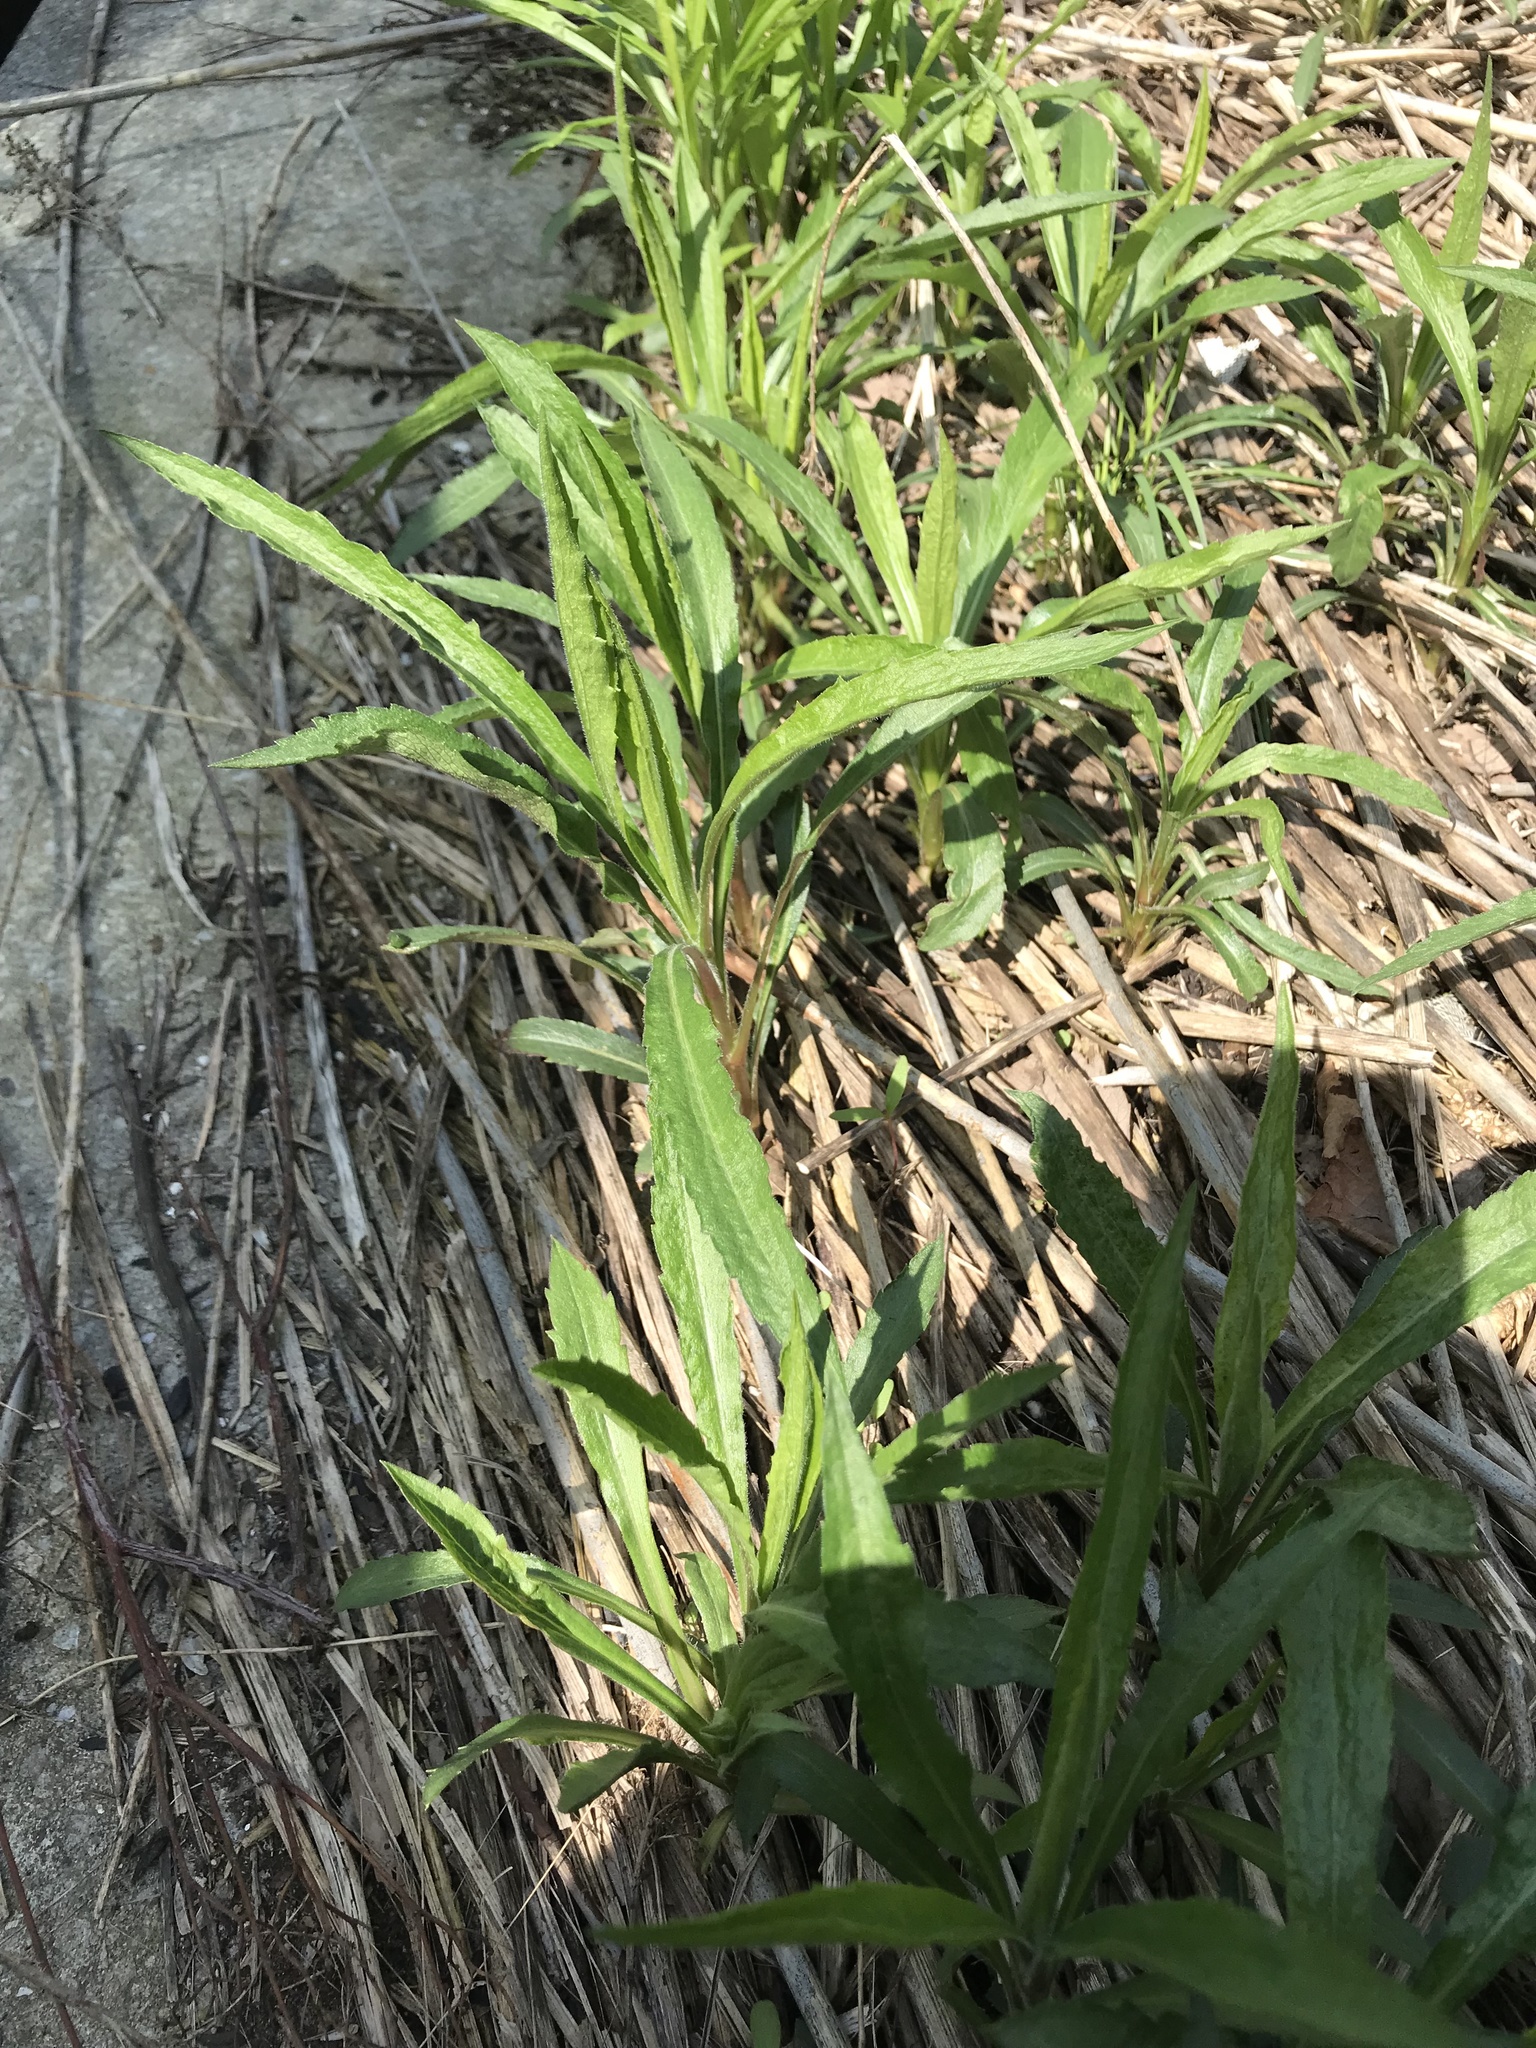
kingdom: Plantae
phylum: Tracheophyta
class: Magnoliopsida
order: Asterales
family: Asteraceae
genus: Solidago
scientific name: Solidago canadensis
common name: Canada goldenrod
